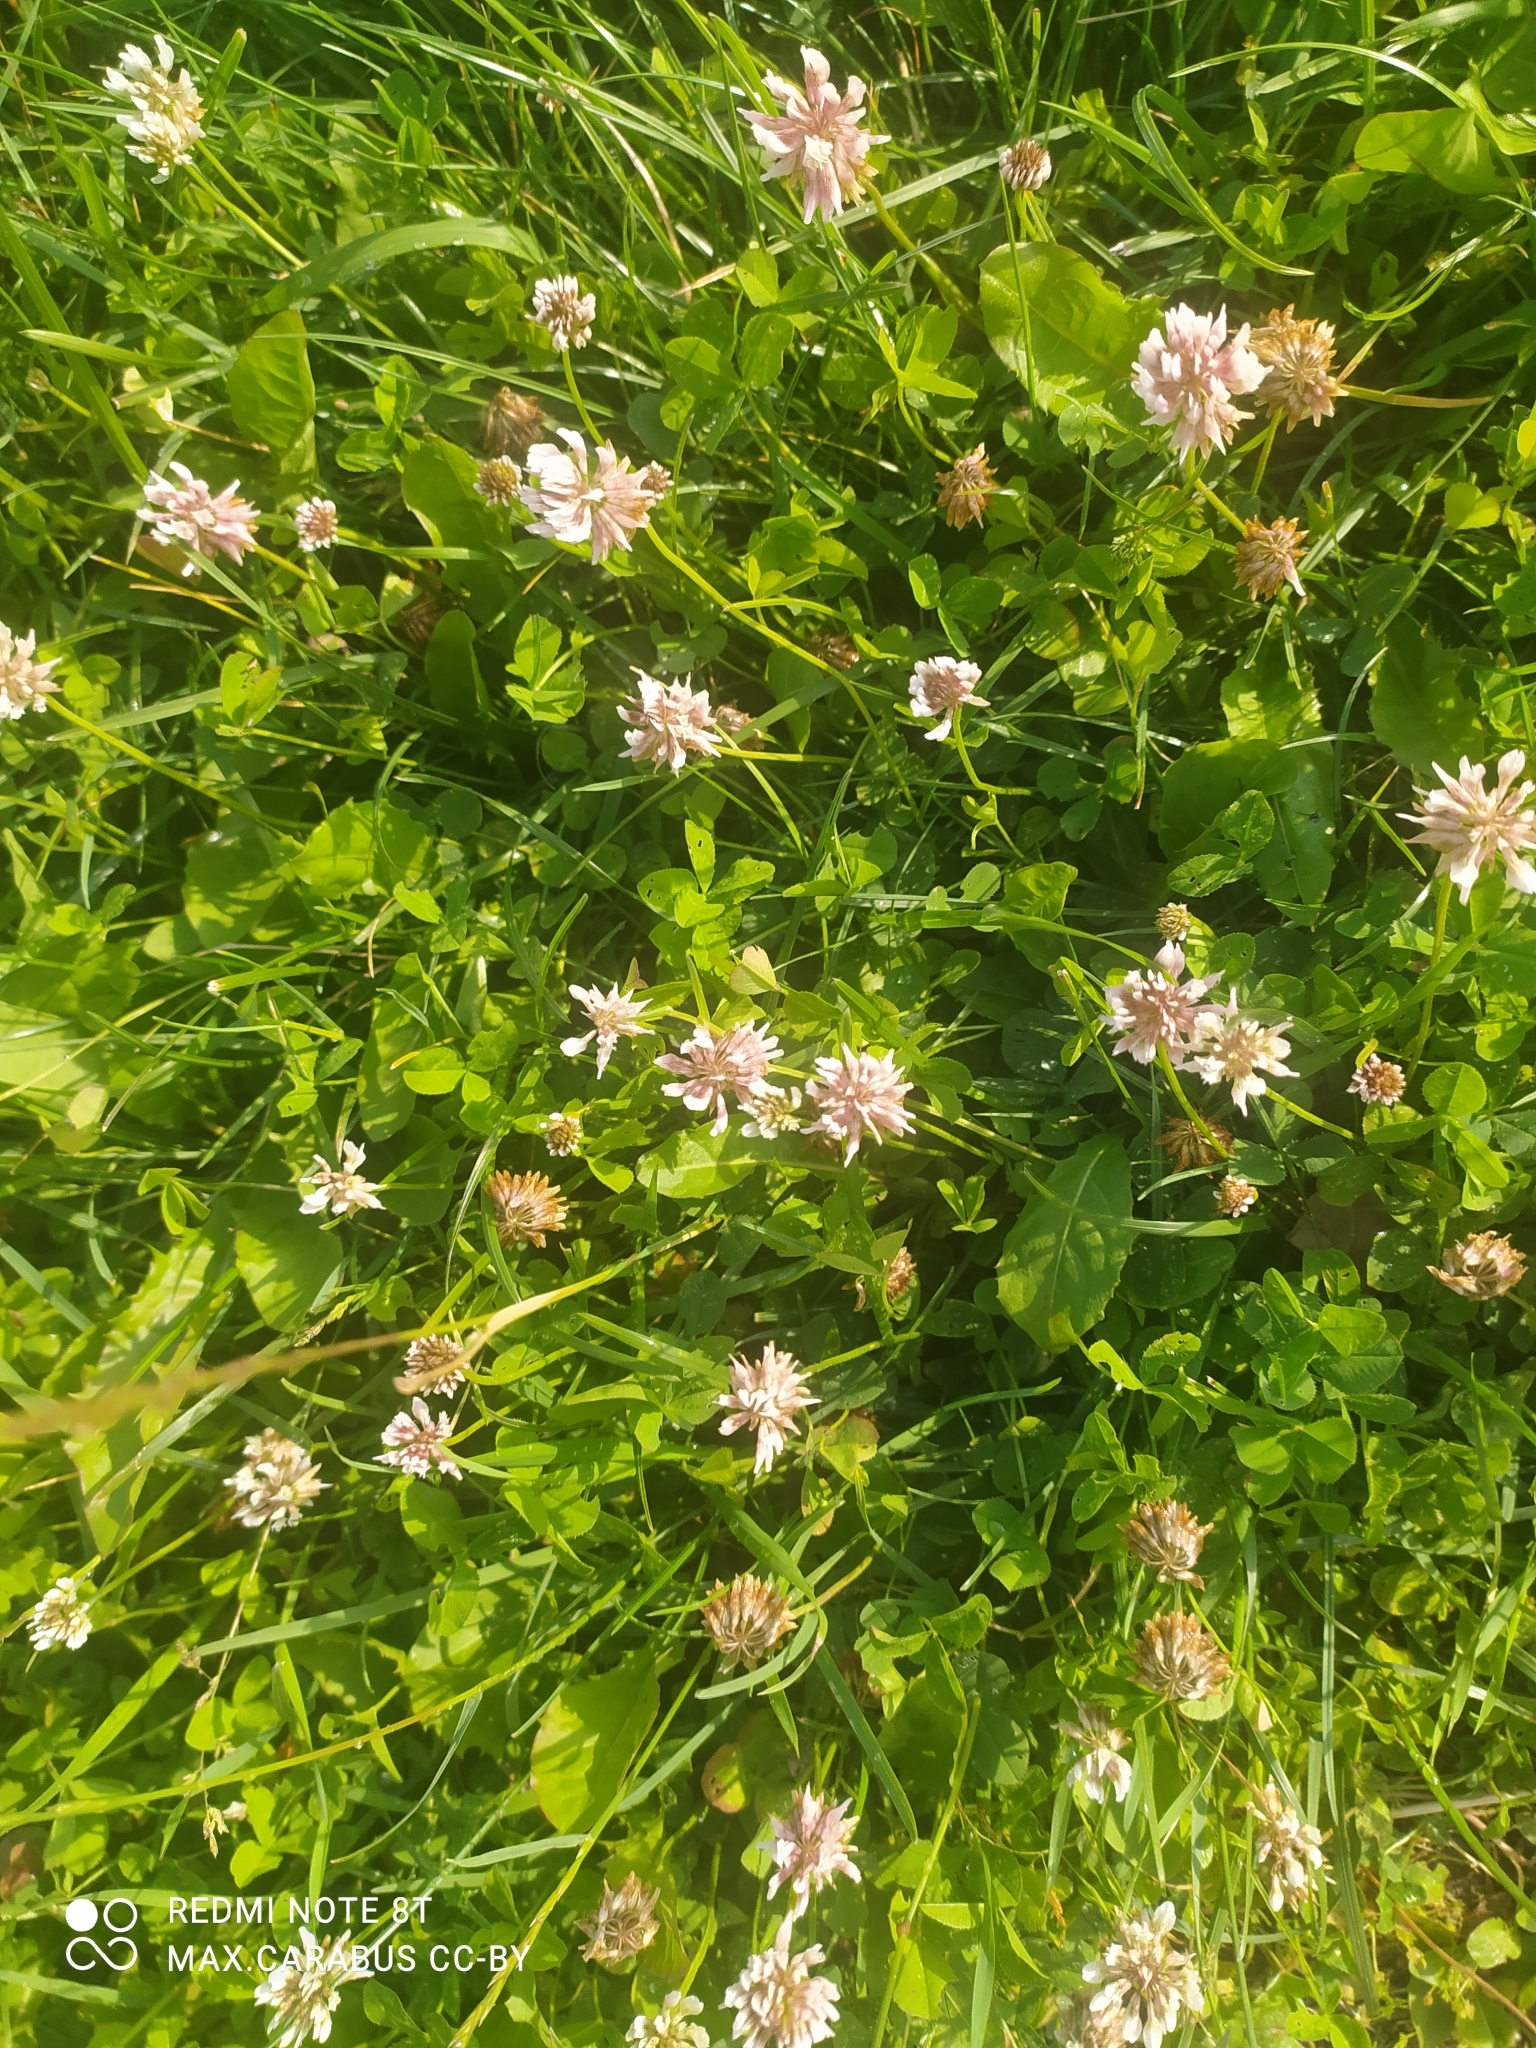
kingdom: Plantae
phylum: Tracheophyta
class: Magnoliopsida
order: Fabales
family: Fabaceae
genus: Trifolium
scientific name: Trifolium repens
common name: White clover
